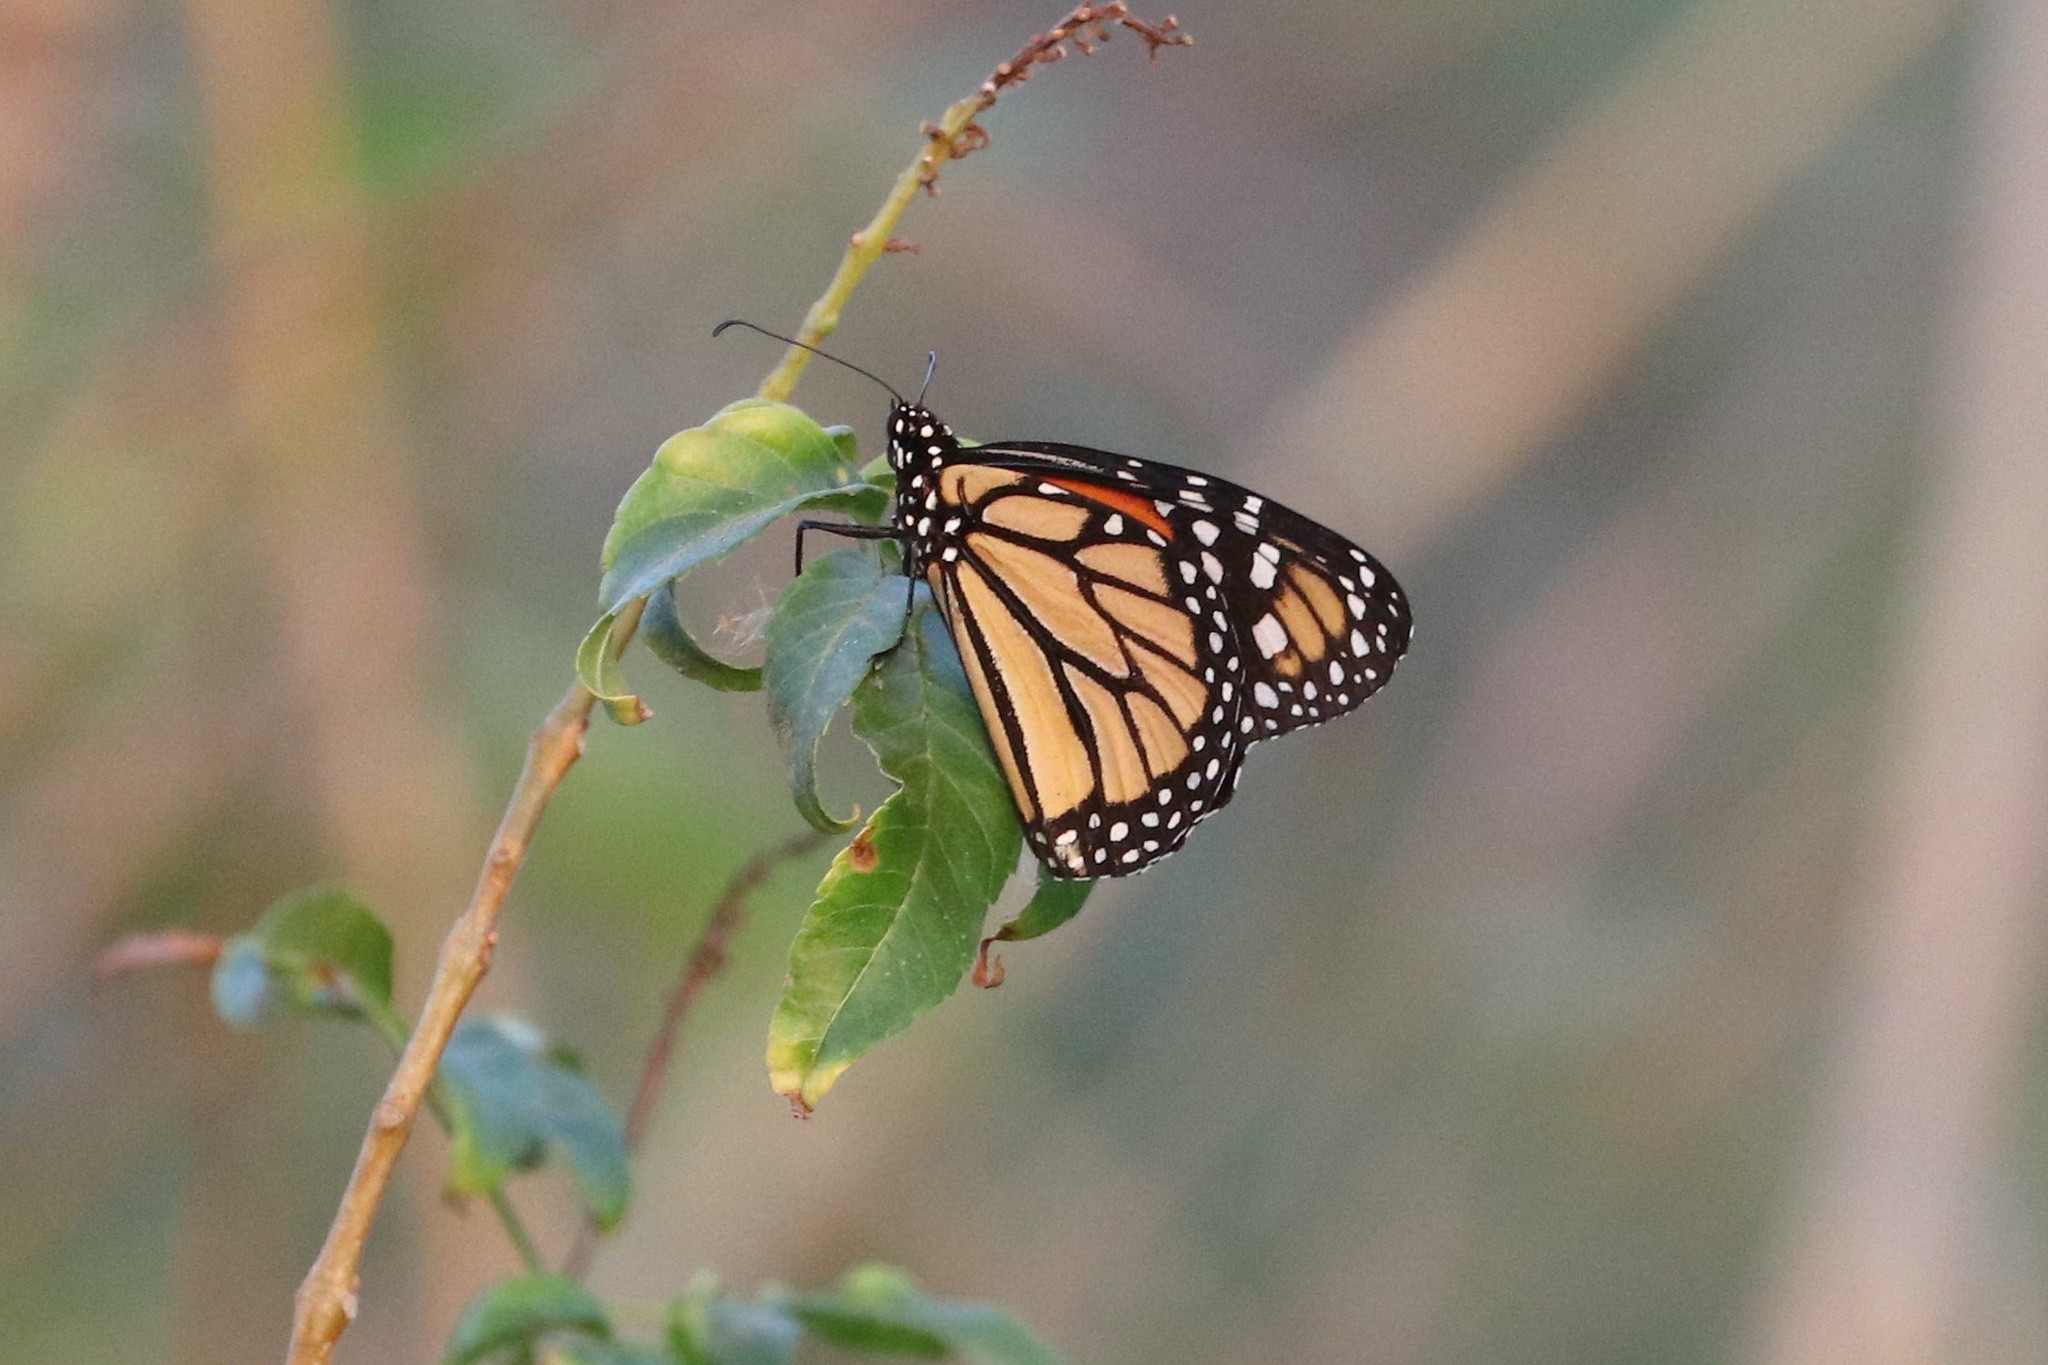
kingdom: Animalia
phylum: Arthropoda
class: Insecta
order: Lepidoptera
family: Nymphalidae
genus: Danaus
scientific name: Danaus plexippus
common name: Monarch
